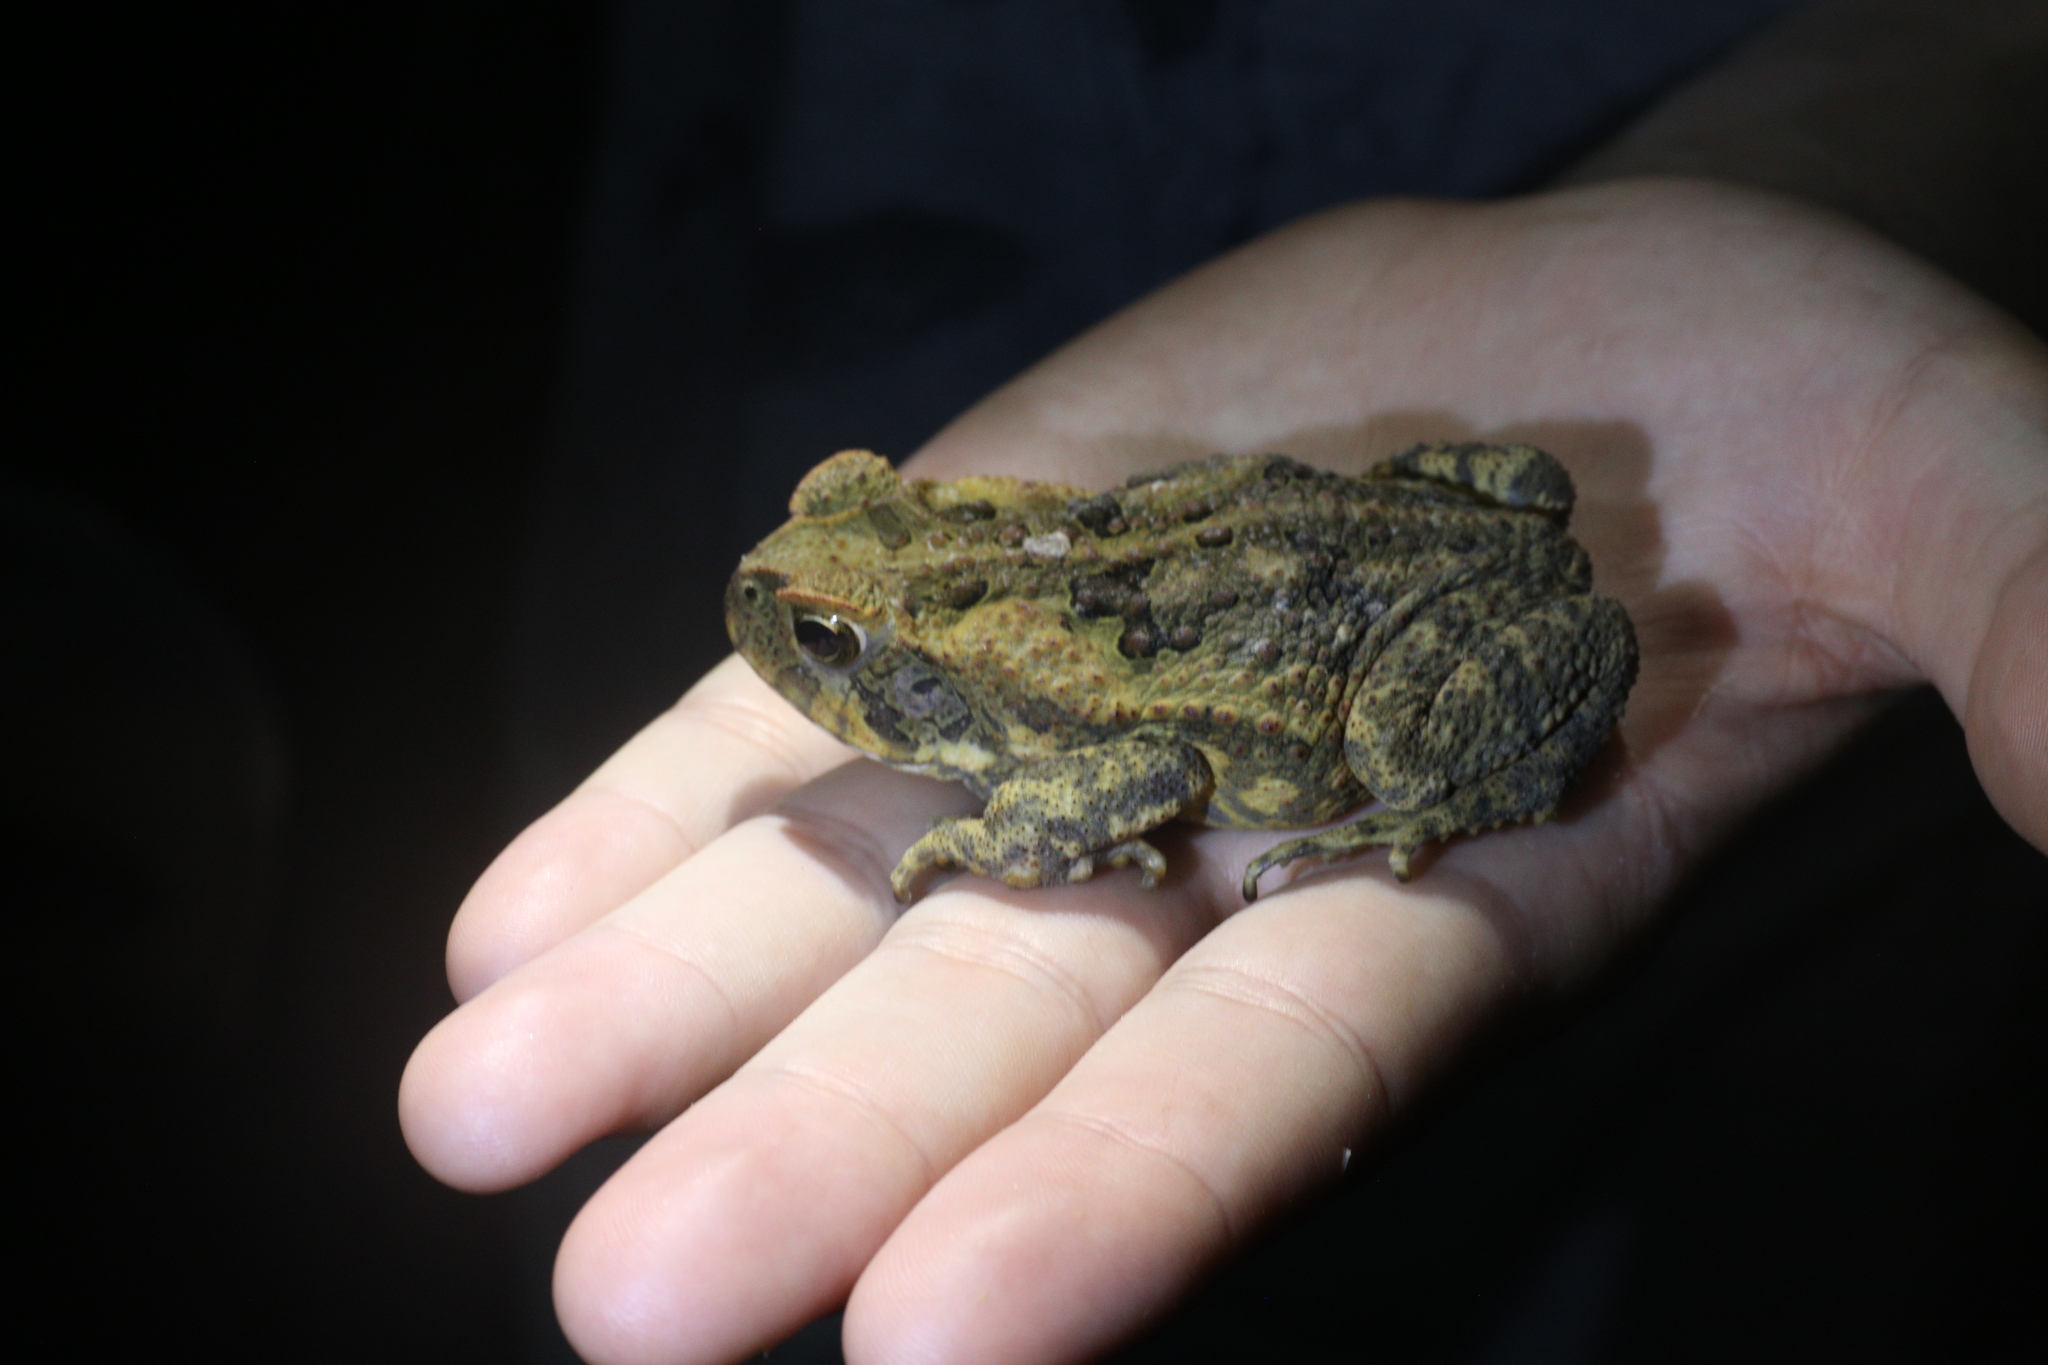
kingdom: Animalia
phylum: Chordata
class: Amphibia
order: Anura
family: Bufonidae
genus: Rhinella
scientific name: Rhinella marina
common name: Cane toad
